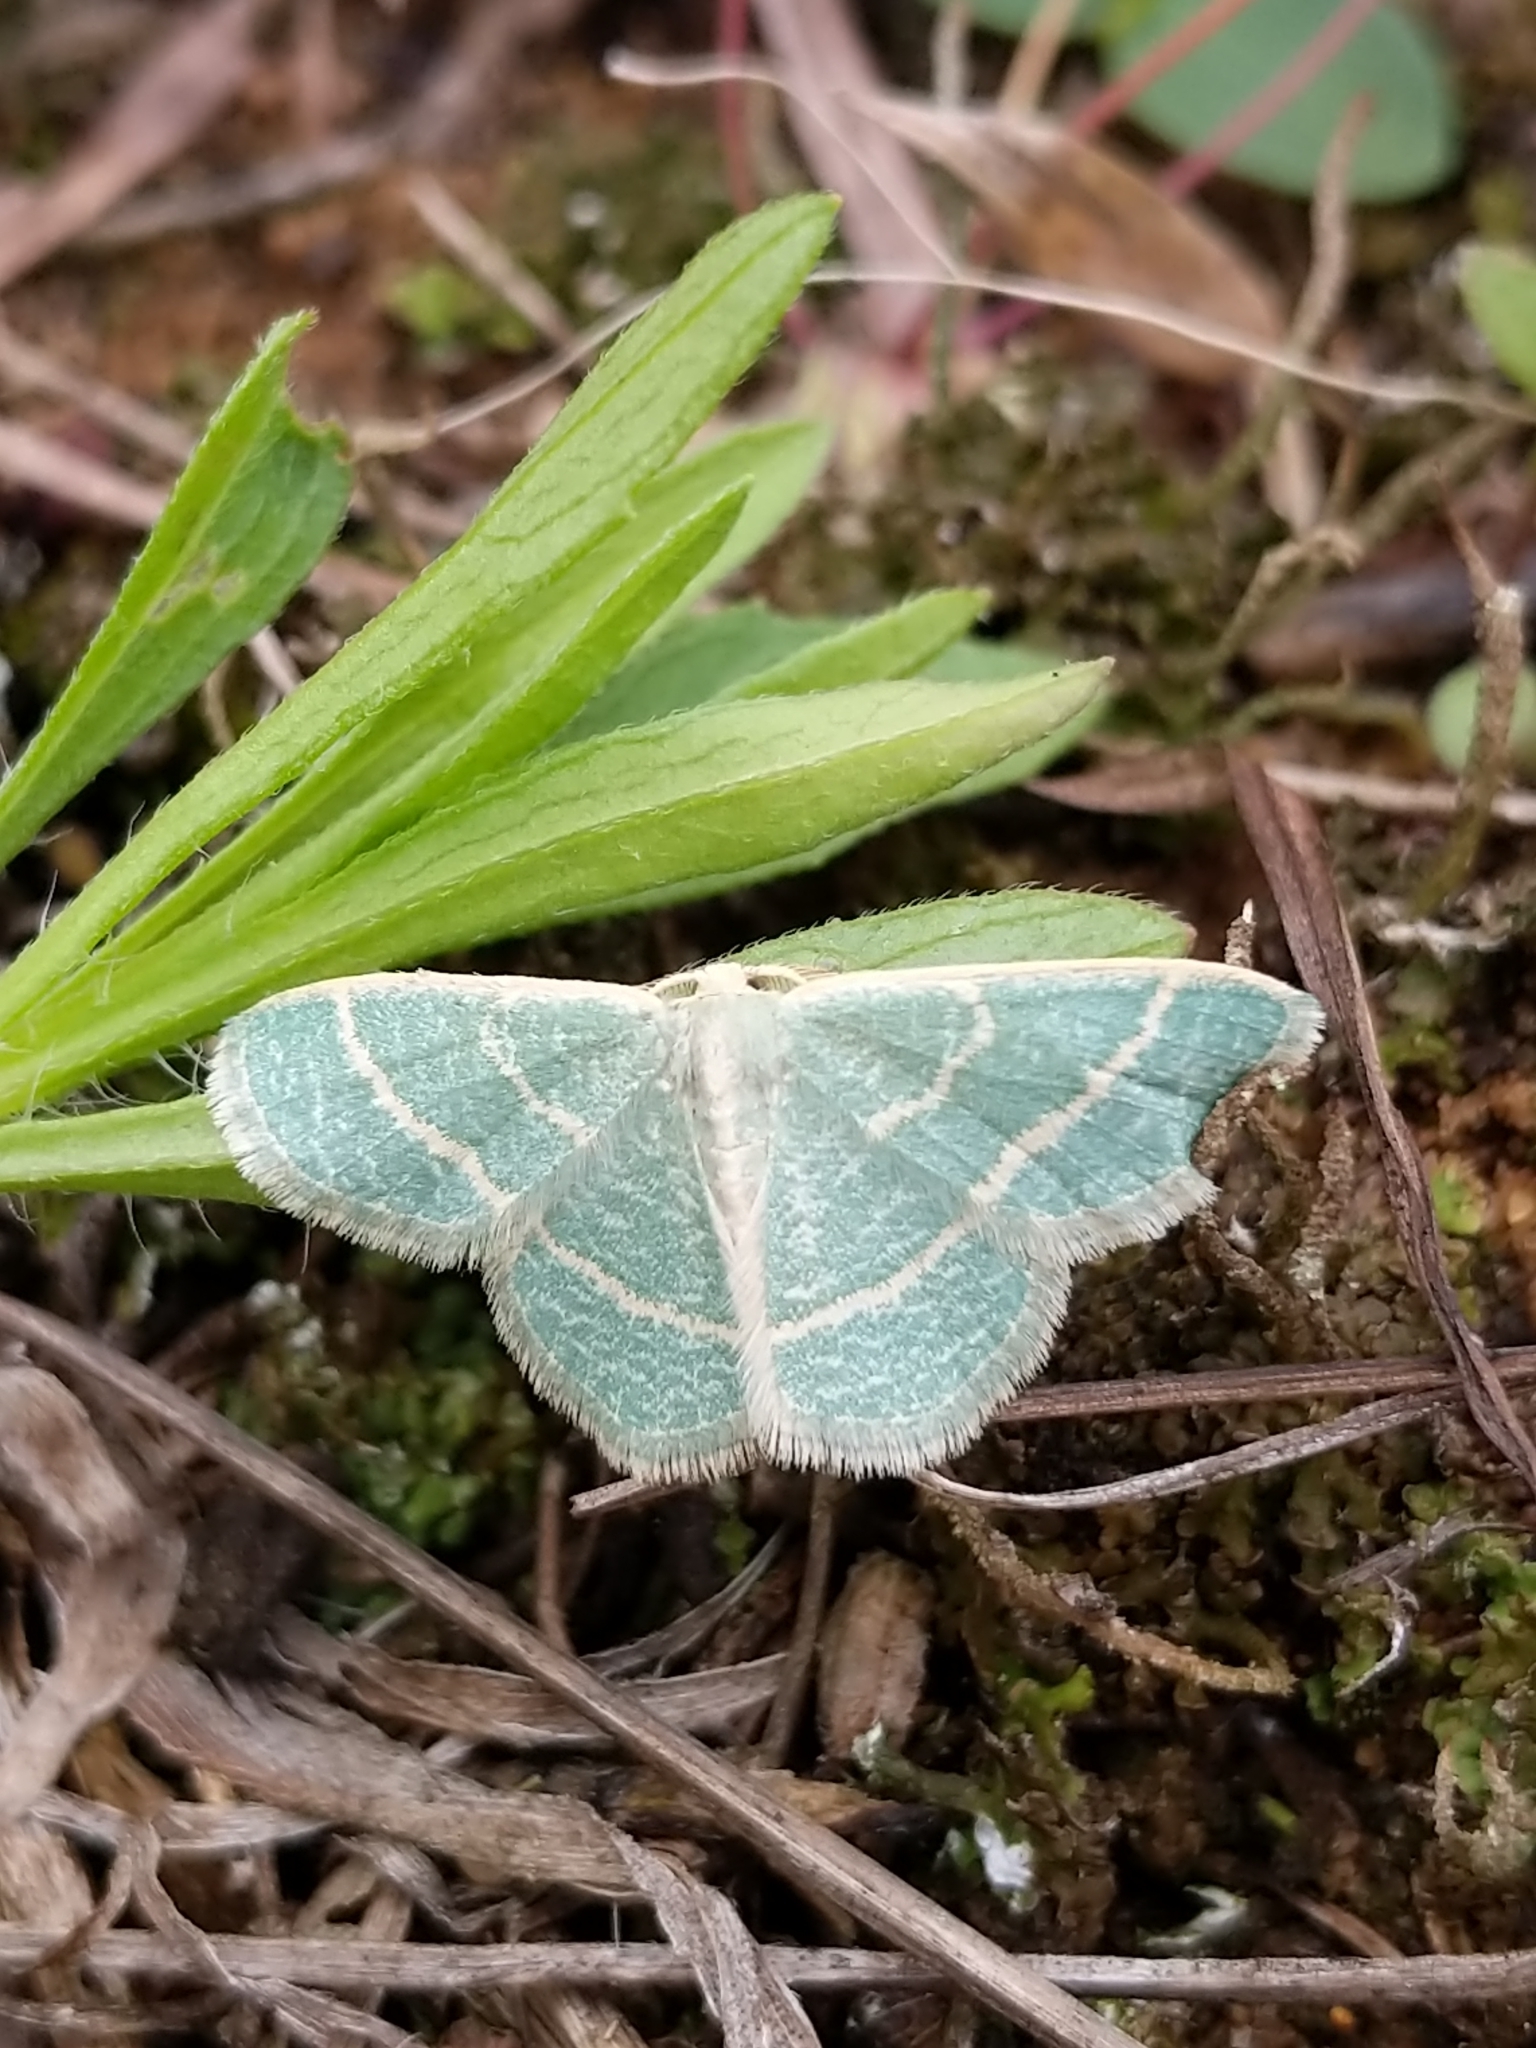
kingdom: Animalia
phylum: Arthropoda
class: Insecta
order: Lepidoptera
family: Geometridae
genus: Chlorochlamys
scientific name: Chlorochlamys chloroleucaria
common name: Blackberry looper
